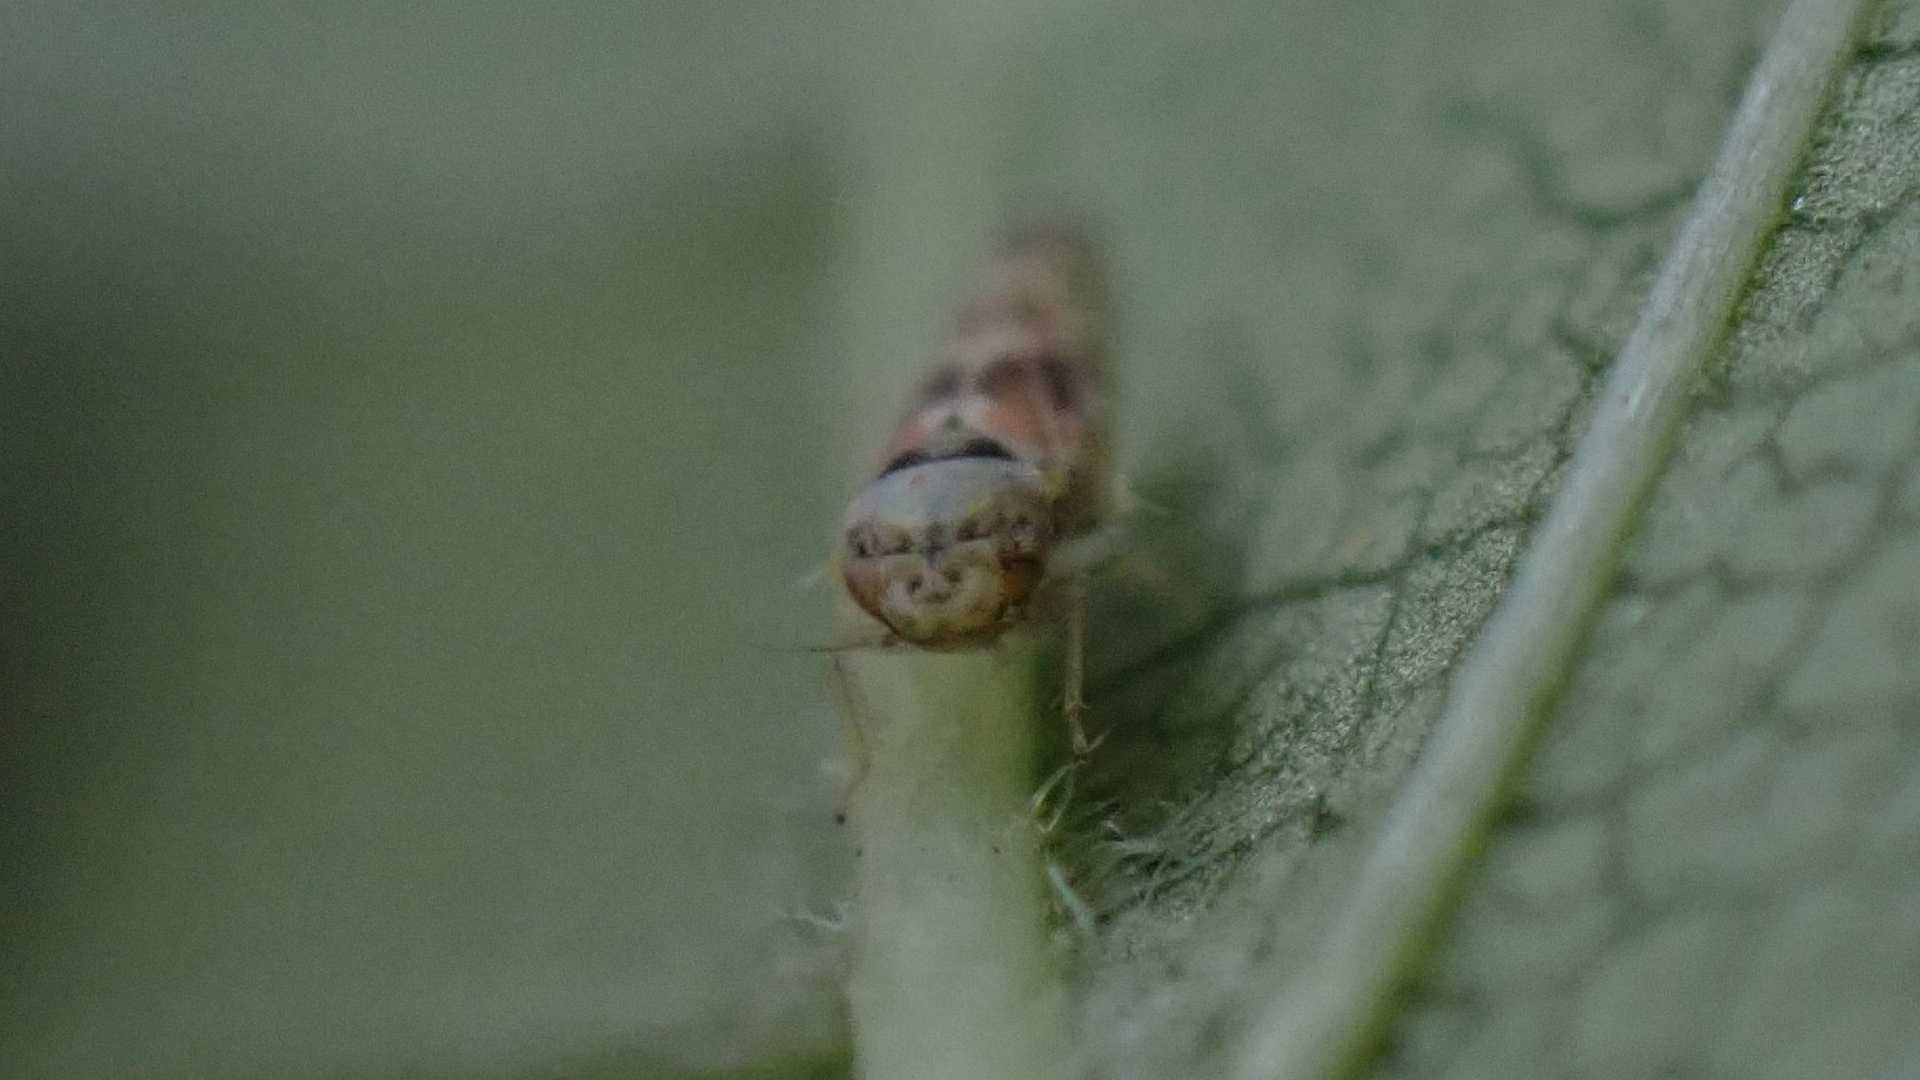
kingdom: Animalia
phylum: Arthropoda
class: Insecta
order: Hemiptera
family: Cicadellidae
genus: Tautoneura
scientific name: Tautoneura polymitusa
